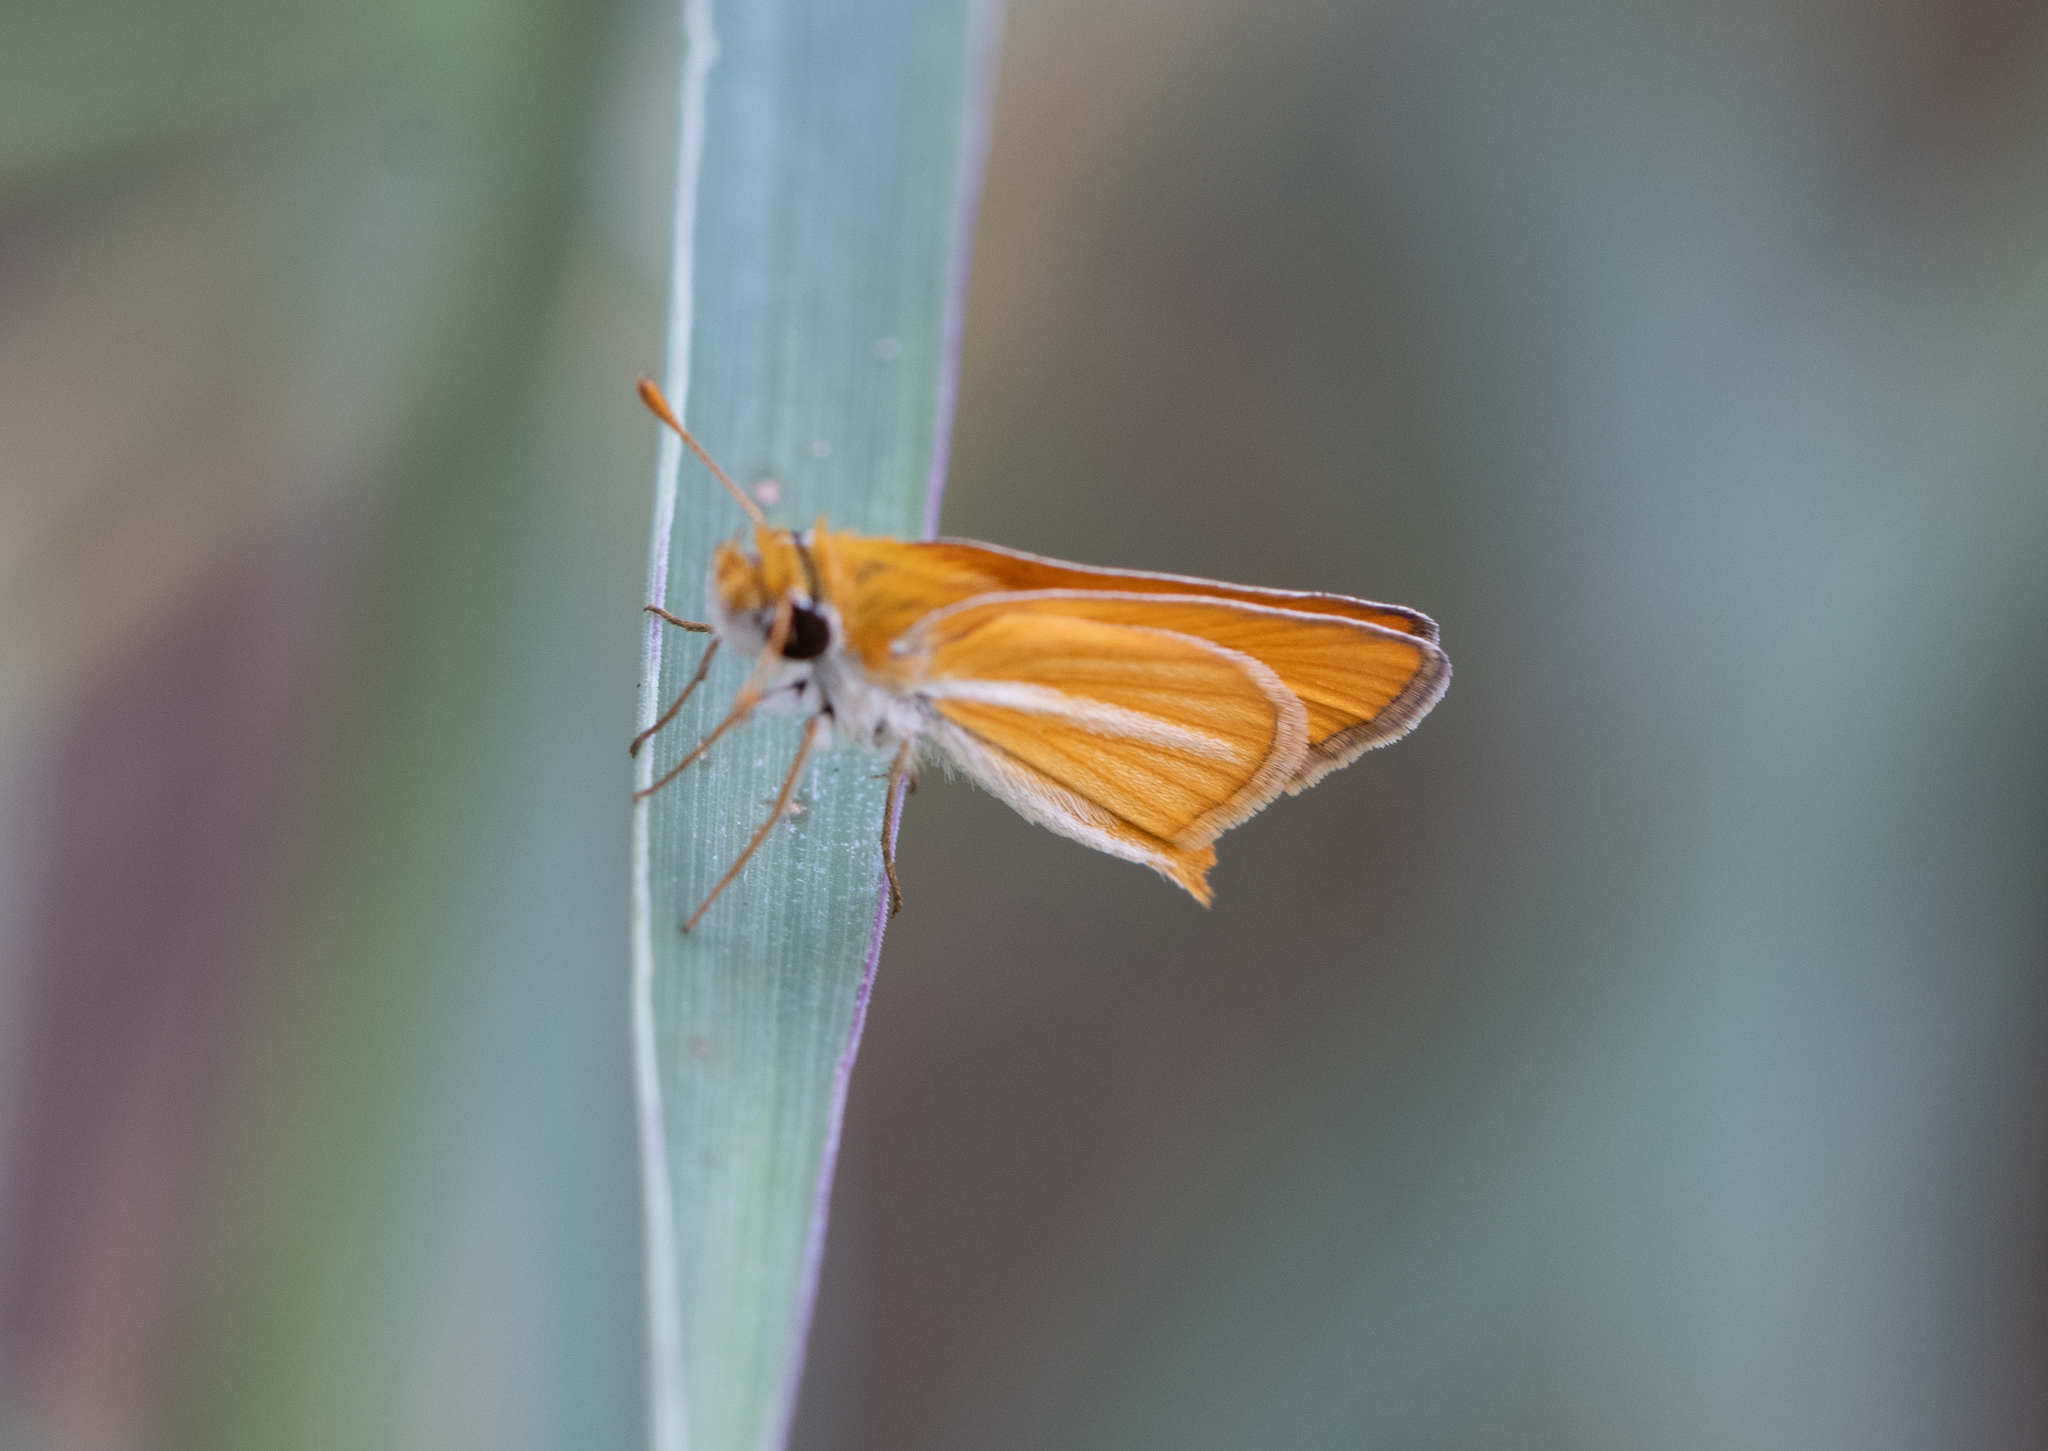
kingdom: Animalia
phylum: Arthropoda
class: Insecta
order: Lepidoptera
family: Hesperiidae
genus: Copaeodes
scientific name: Copaeodes minima
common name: Southern skipperling
